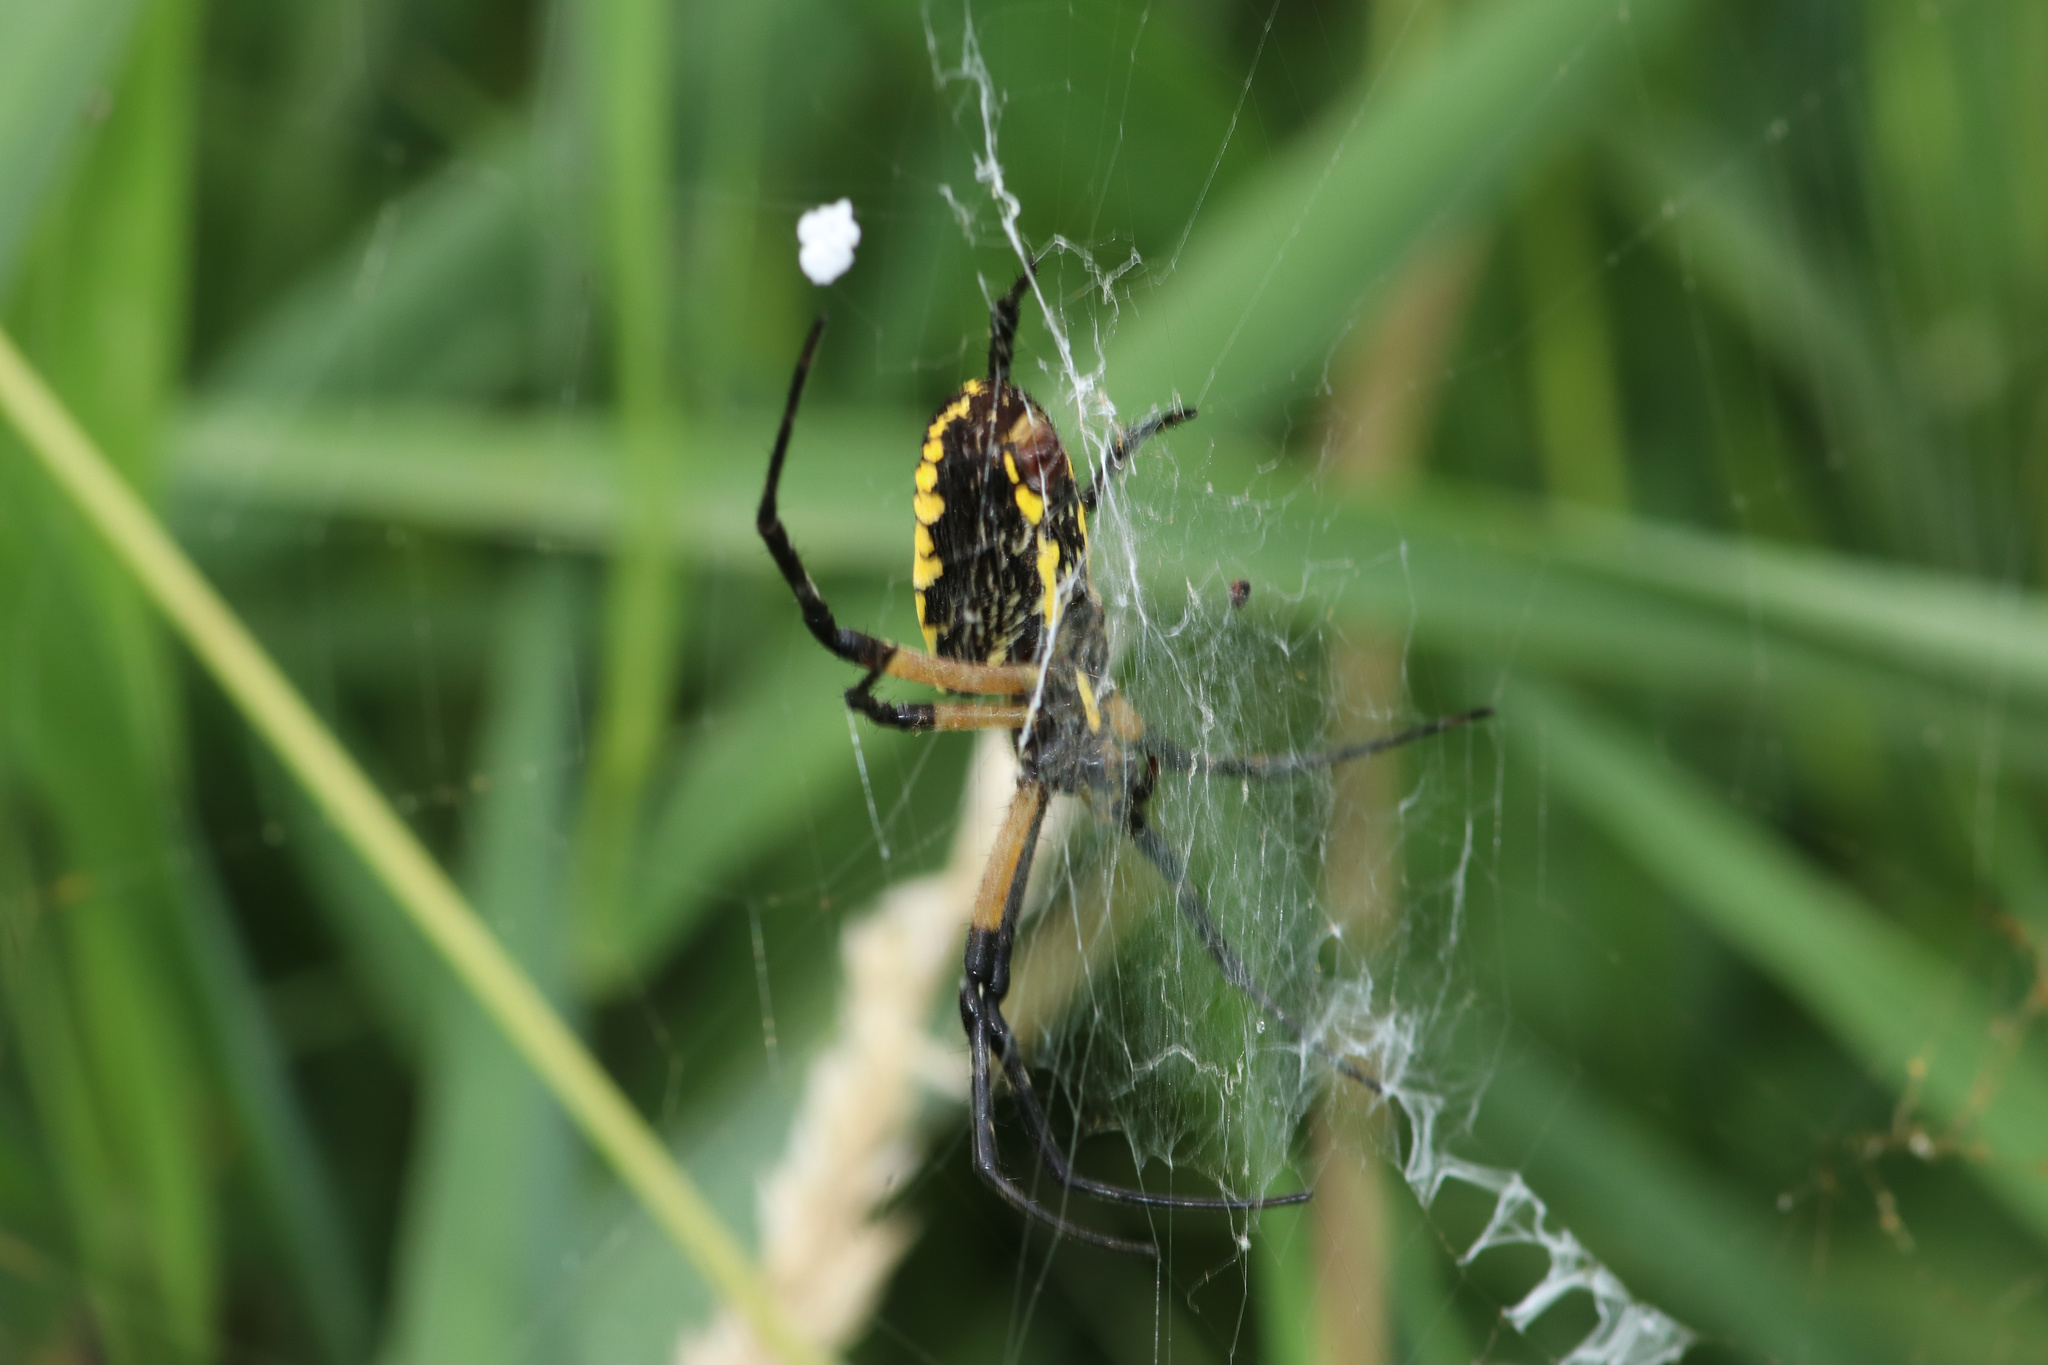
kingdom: Animalia
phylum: Arthropoda
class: Arachnida
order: Araneae
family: Araneidae
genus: Argiope
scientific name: Argiope aurantia
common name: Orb weavers
